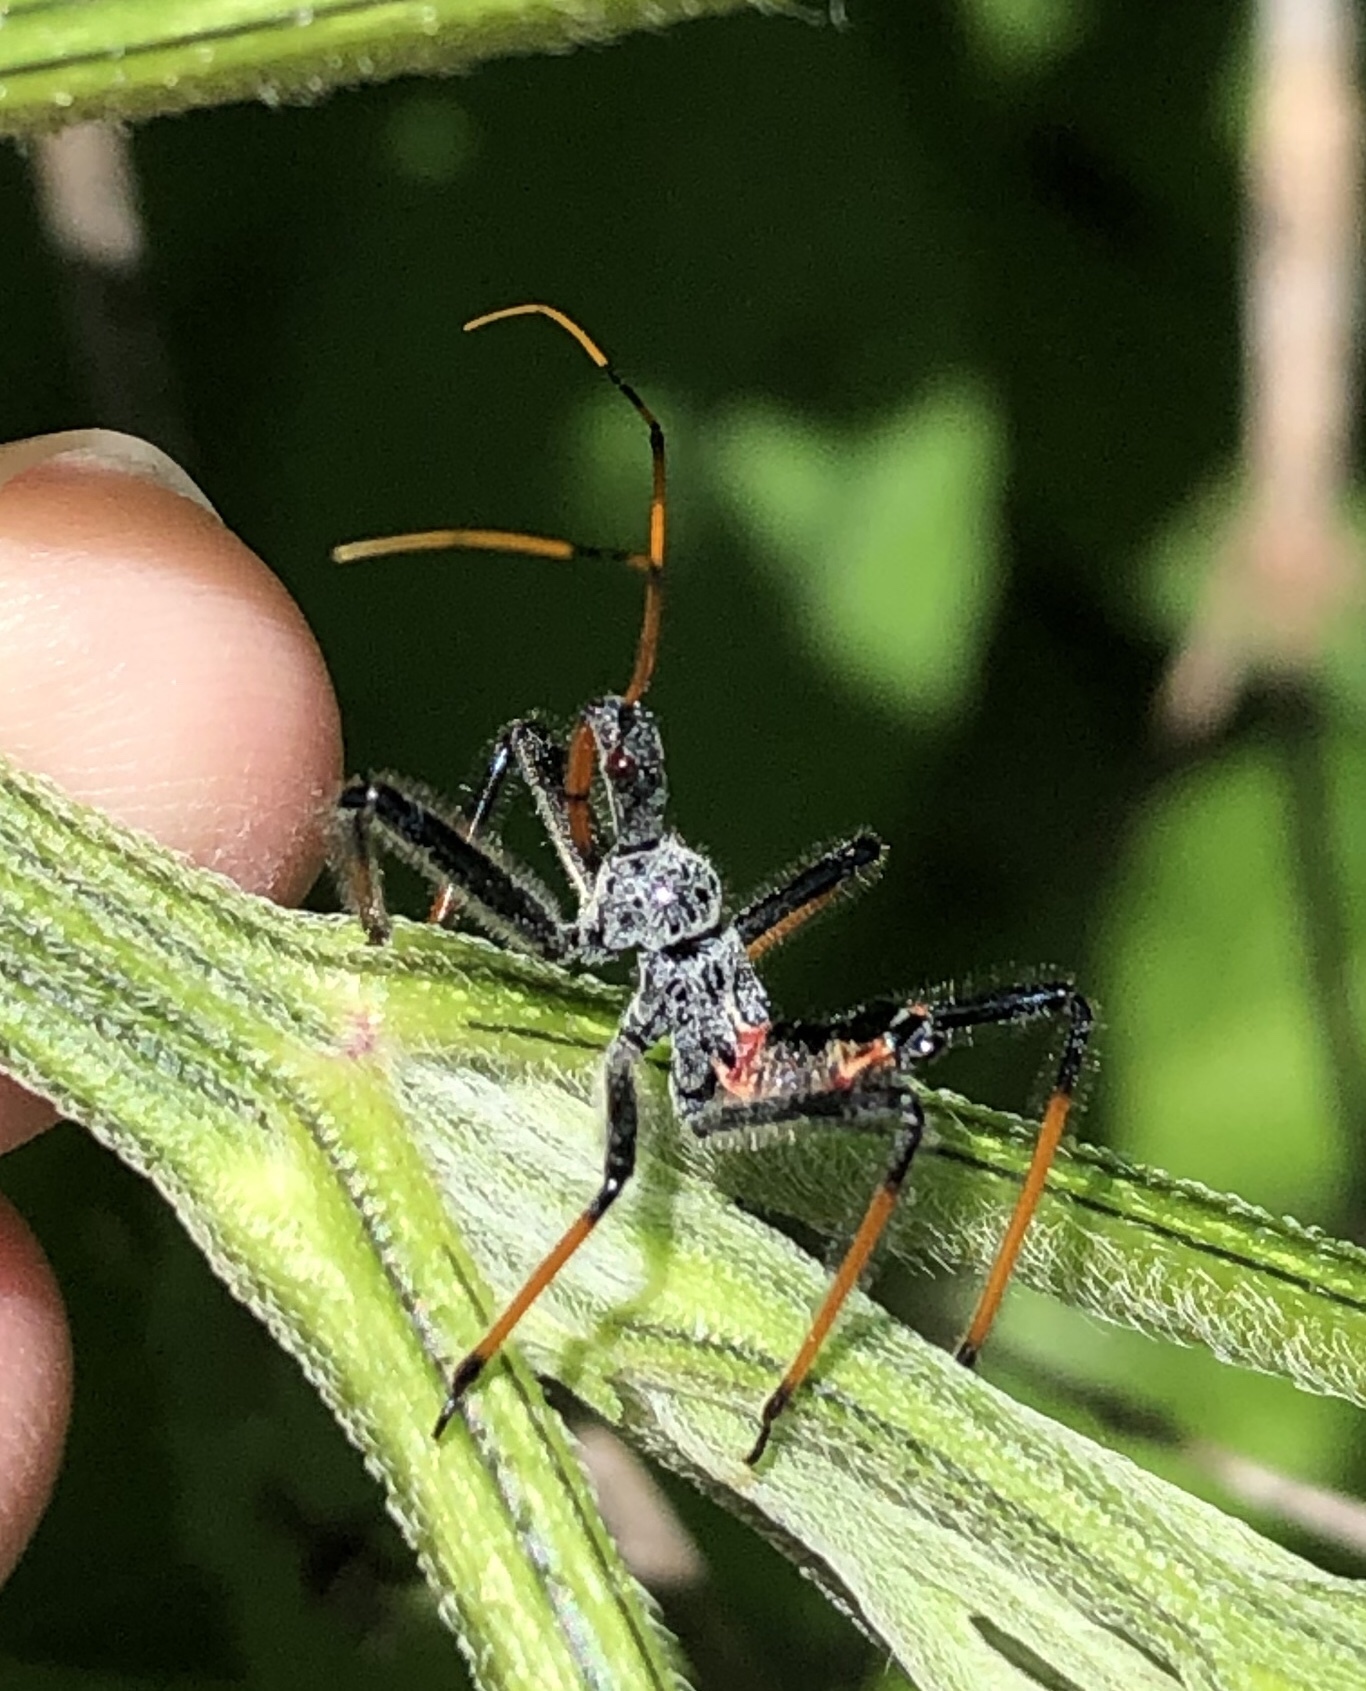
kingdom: Animalia
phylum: Arthropoda
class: Insecta
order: Hemiptera
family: Reduviidae
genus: Arilus
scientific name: Arilus cristatus
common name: North american wheel bug
